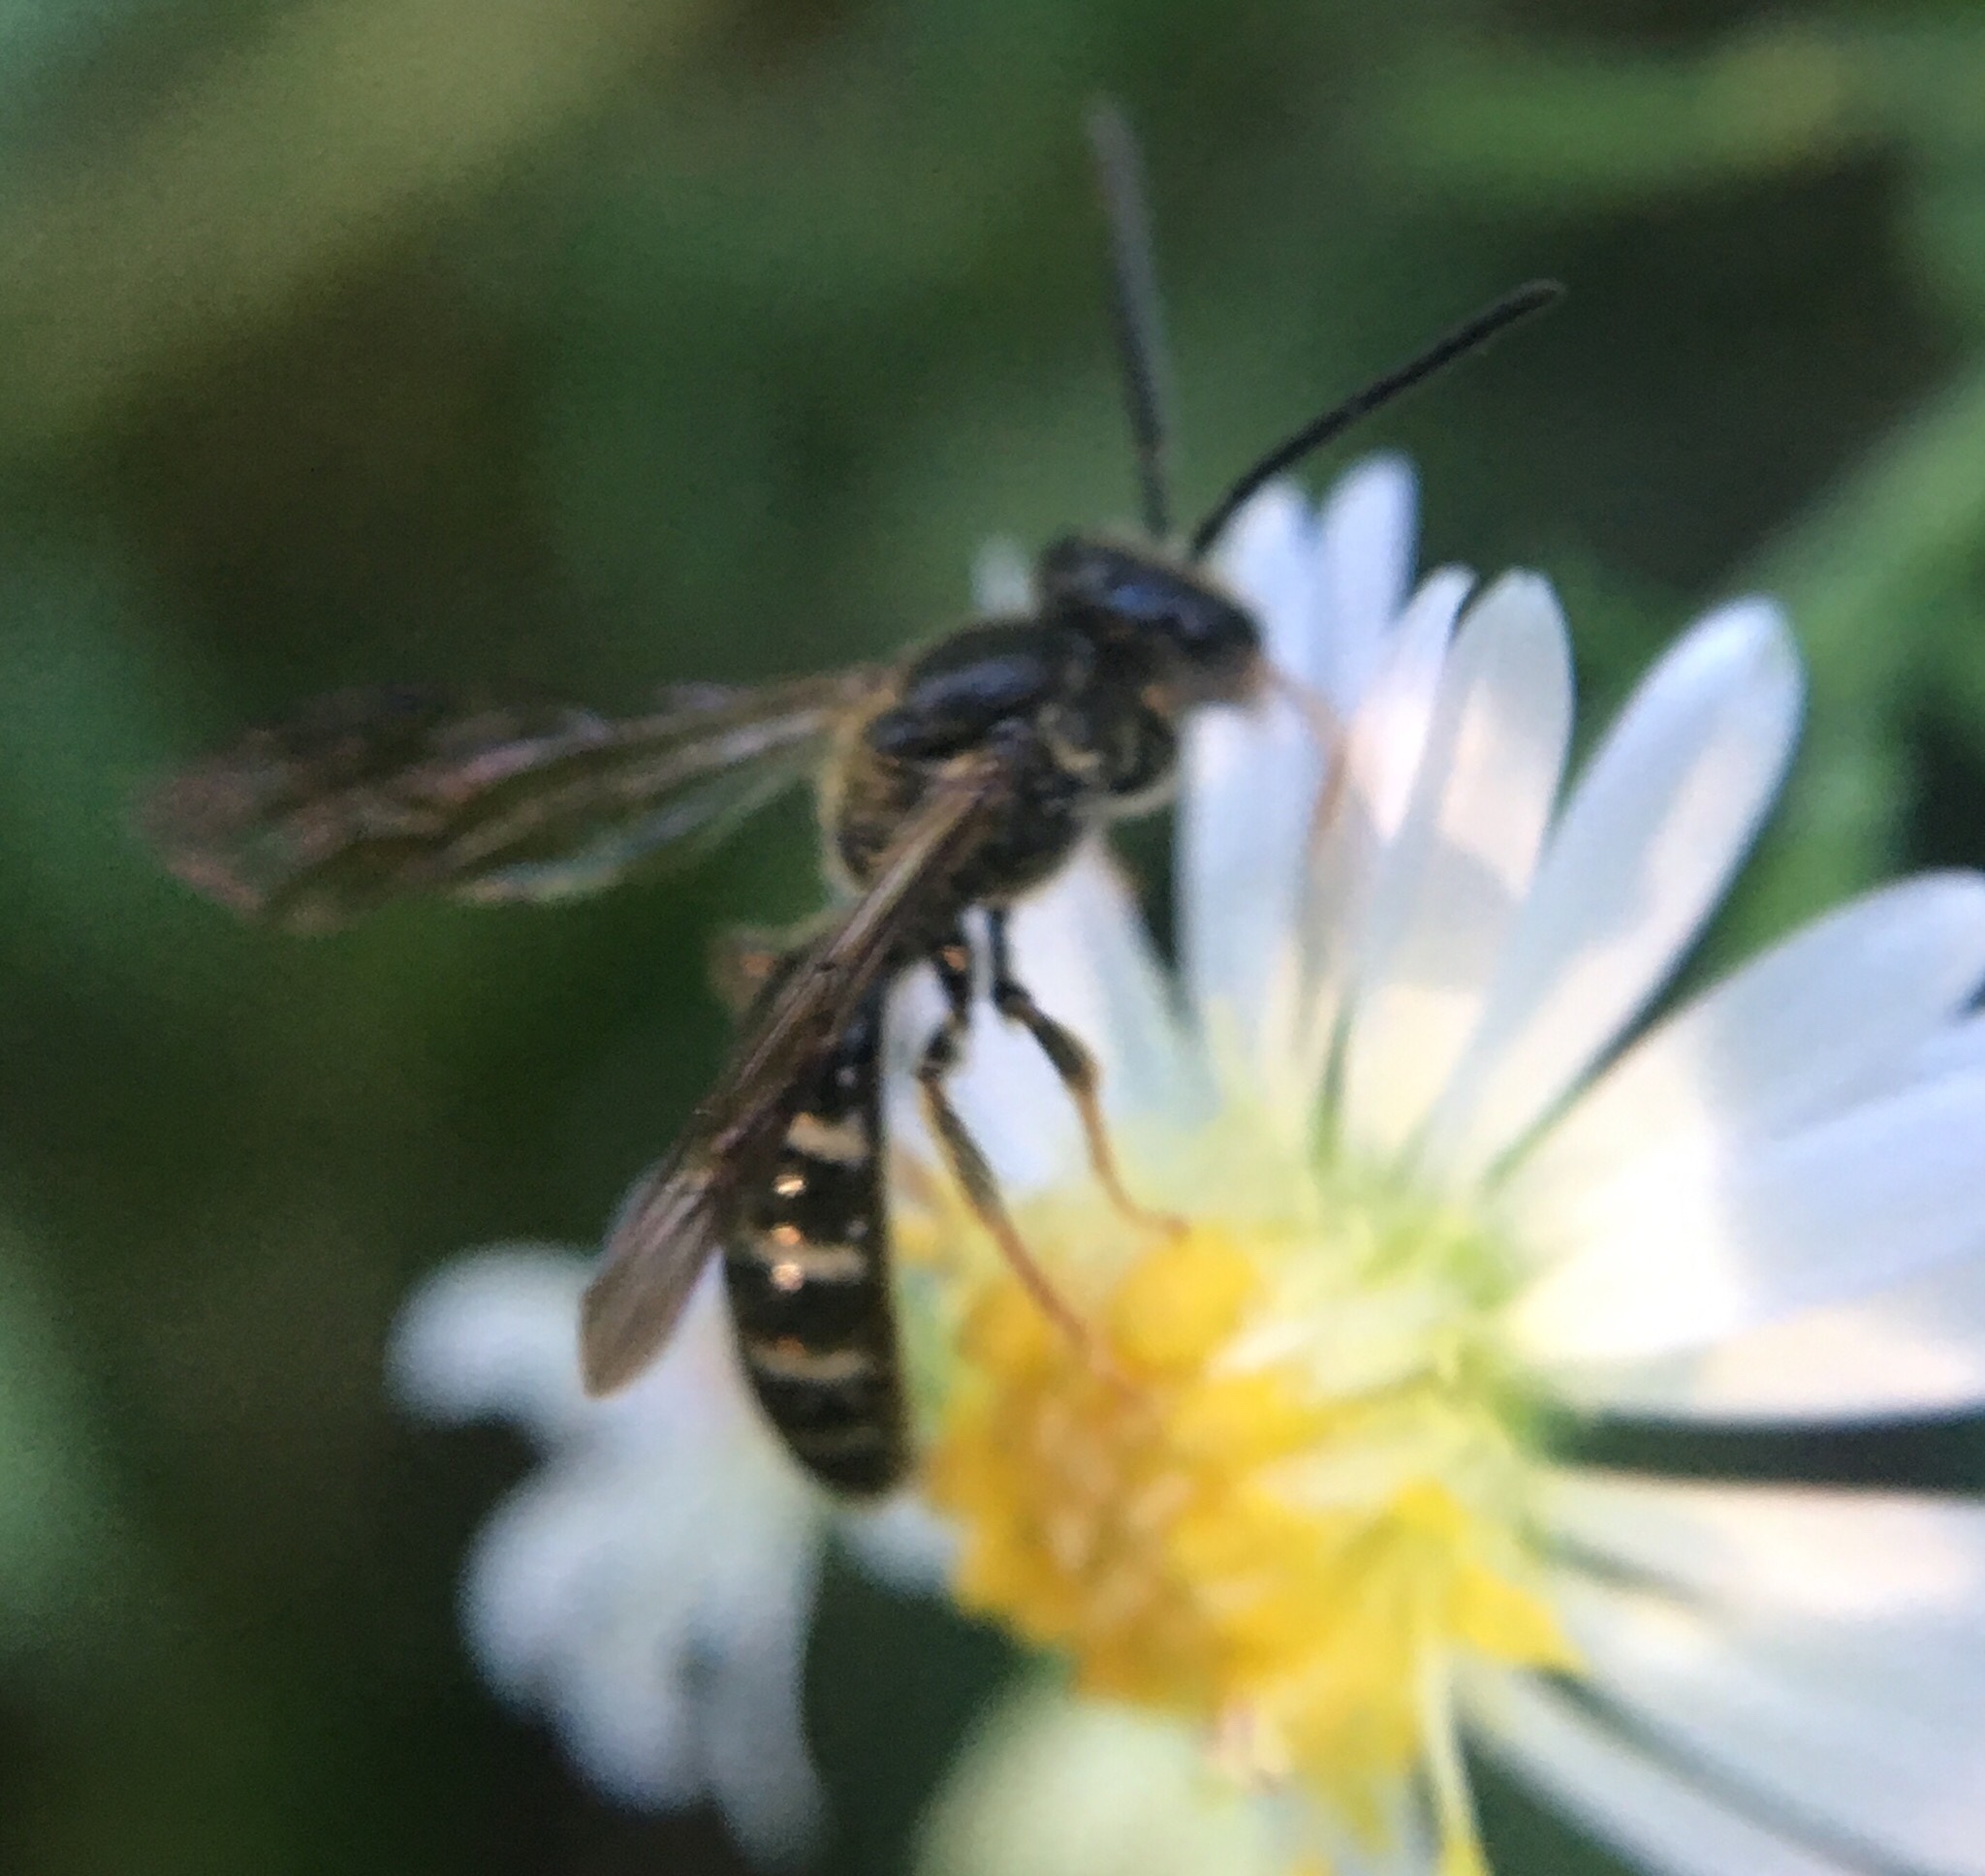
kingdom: Animalia
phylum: Arthropoda
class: Insecta
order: Hymenoptera
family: Halictidae
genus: Lasioglossum
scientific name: Lasioglossum fuscipenne
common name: Brown-winged sweat bee
